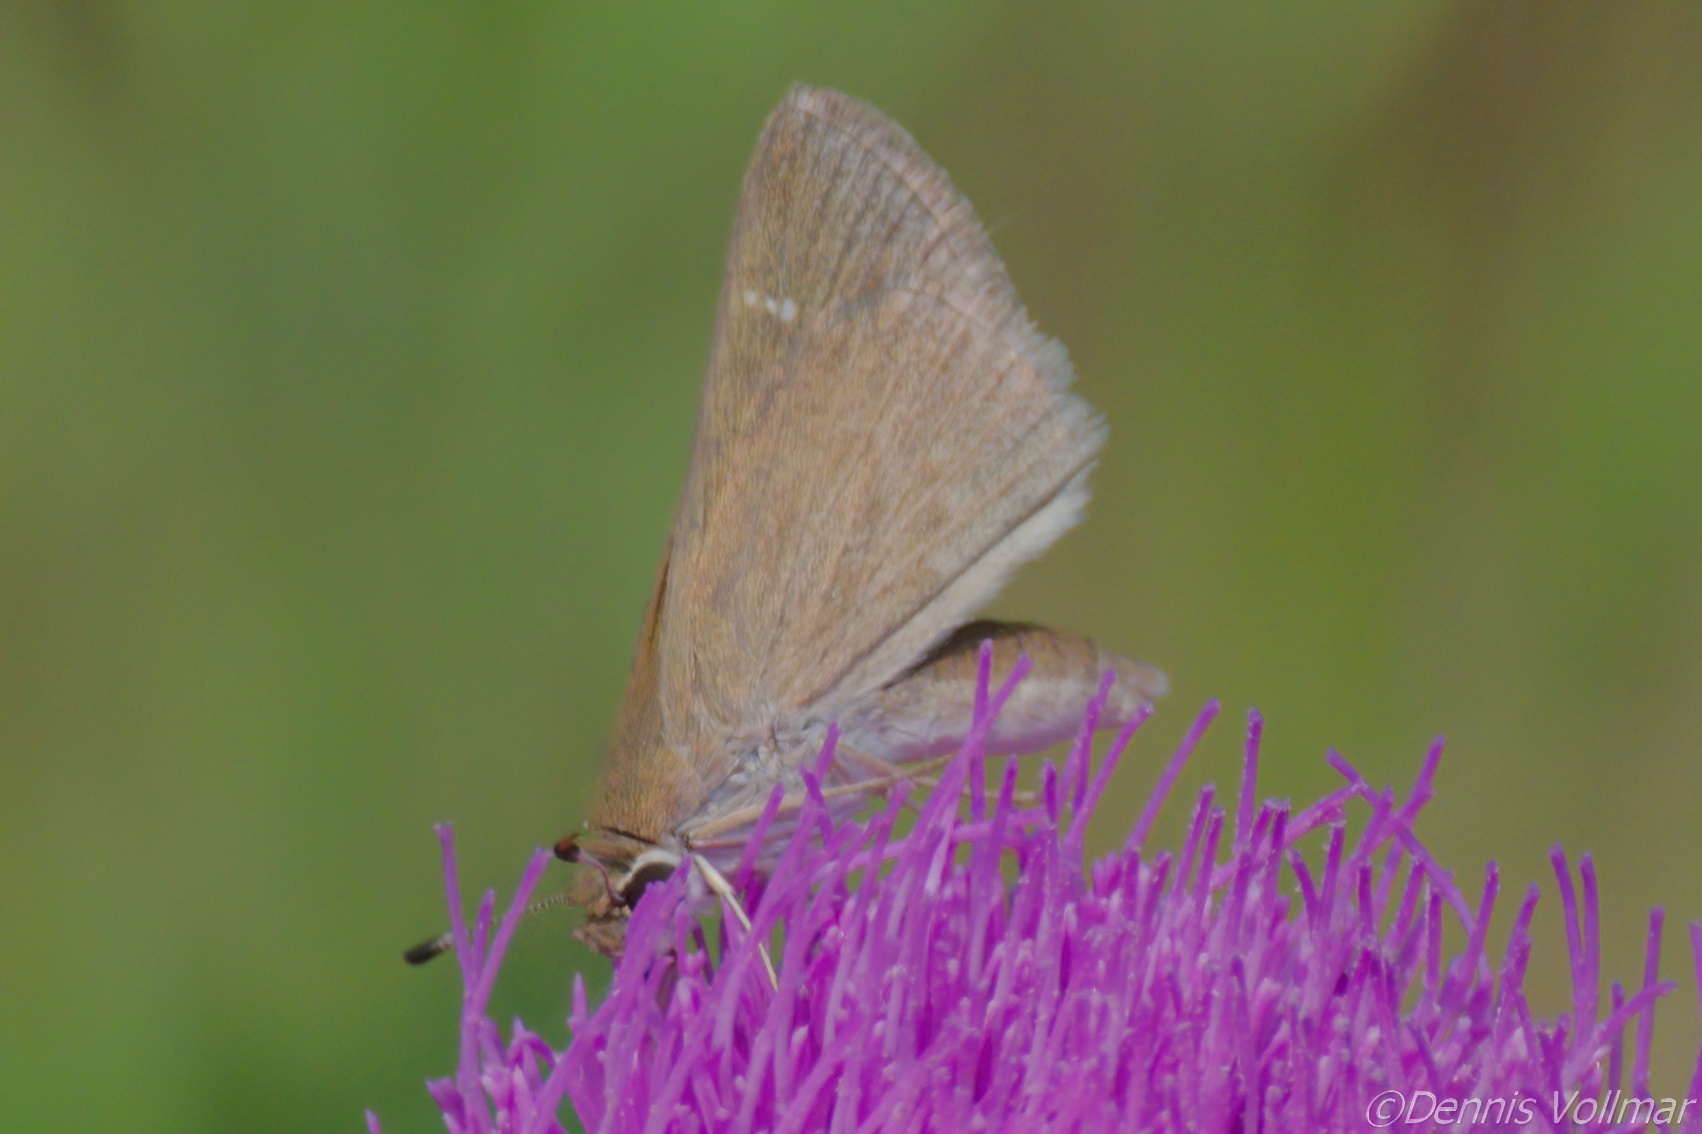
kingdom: Animalia
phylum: Arthropoda
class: Insecta
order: Lepidoptera
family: Hesperiidae
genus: Lerodea
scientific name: Lerodea eufala
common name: Eufala skipper
